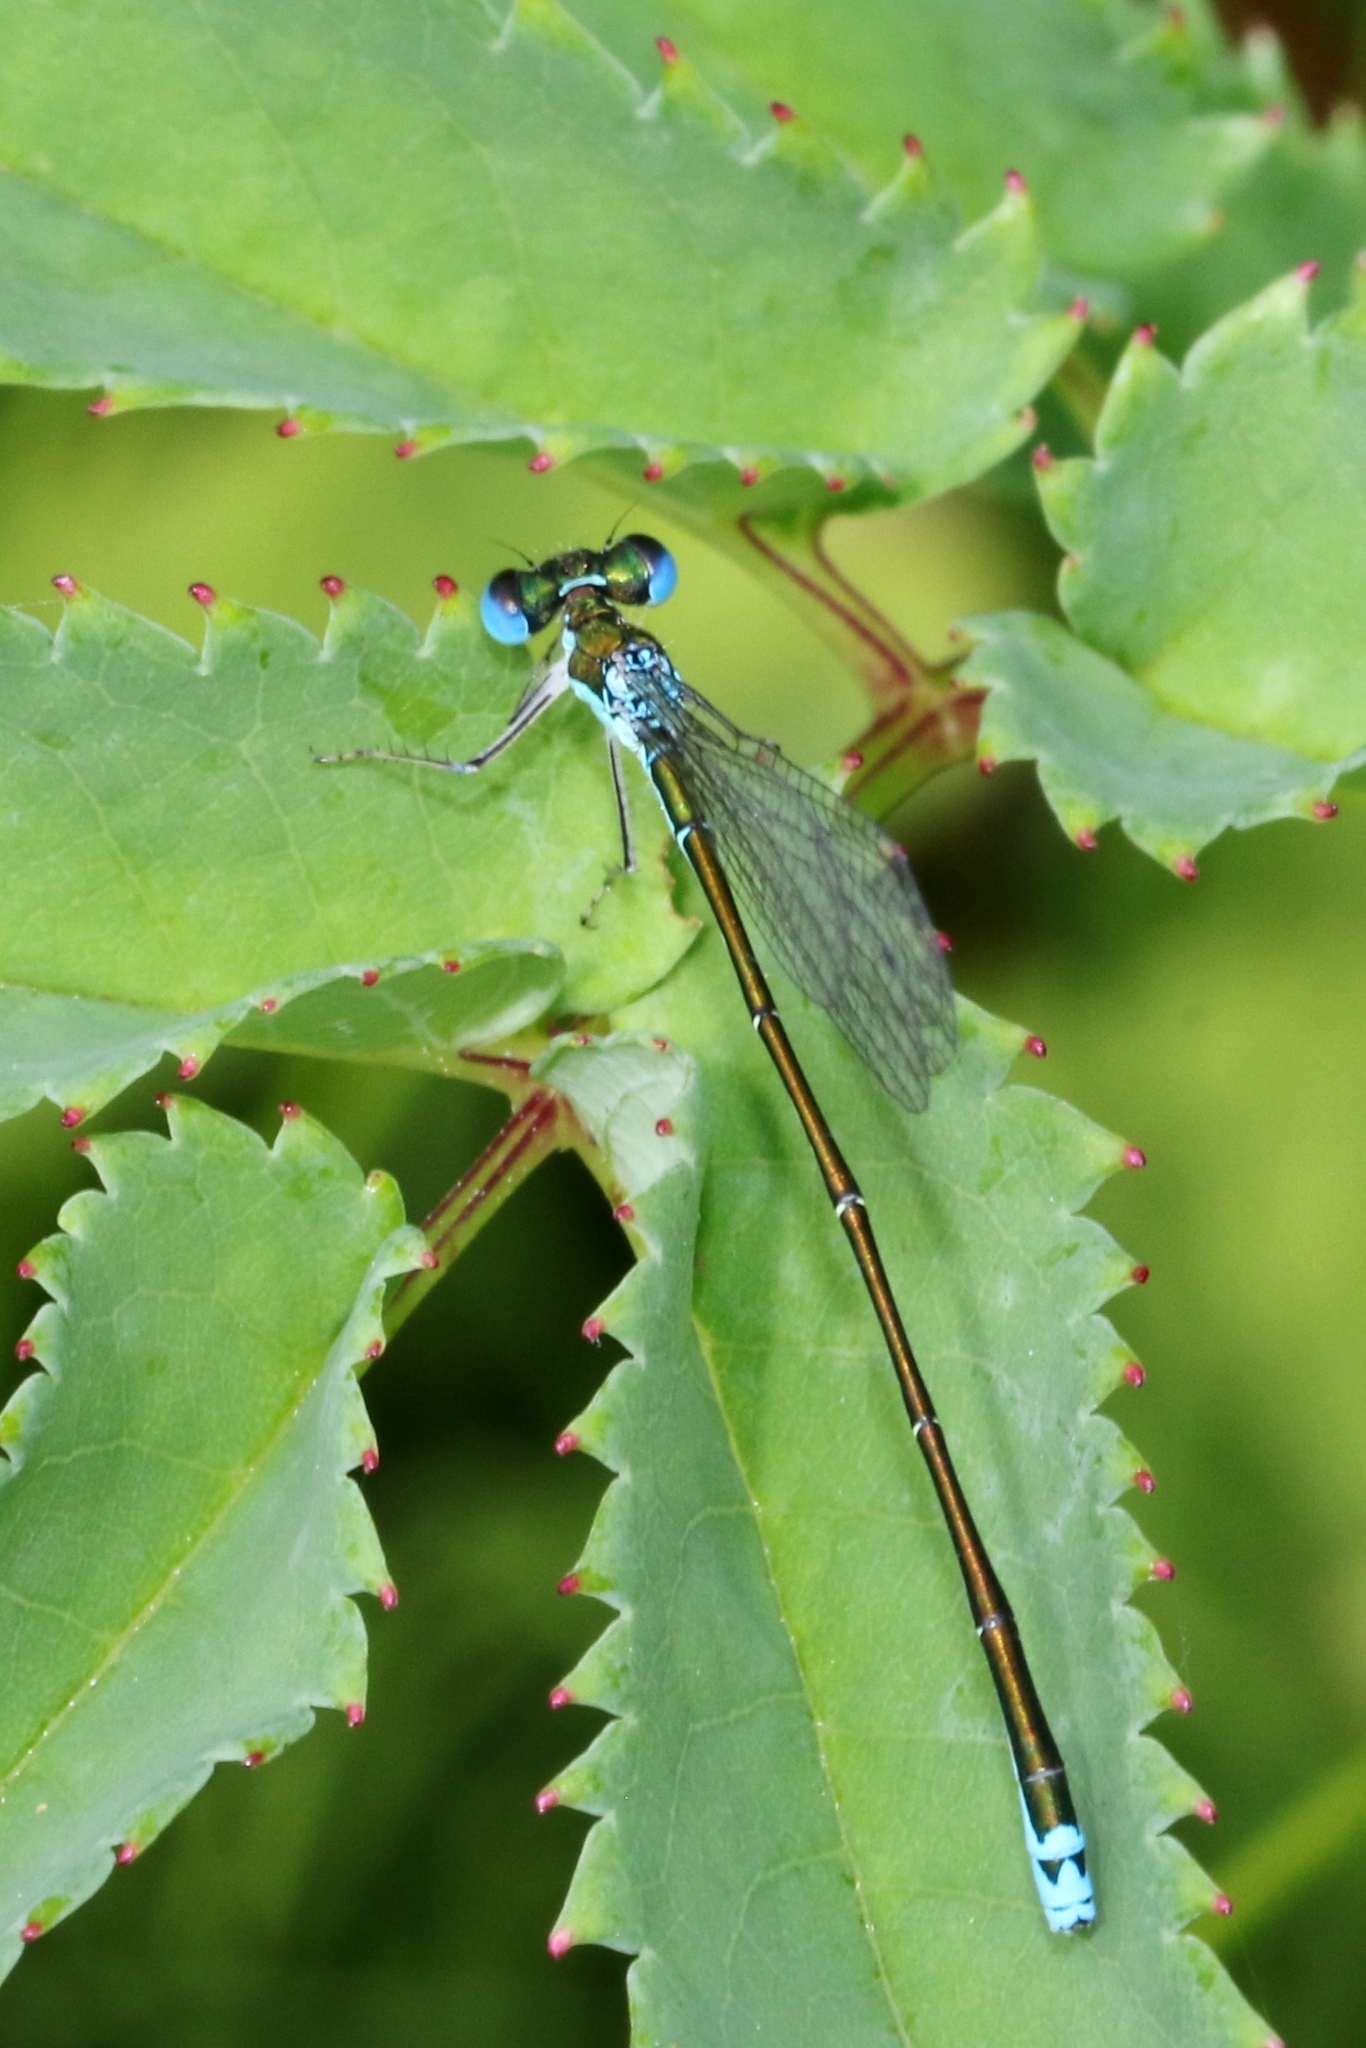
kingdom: Animalia
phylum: Arthropoda
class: Insecta
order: Odonata
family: Coenagrionidae
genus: Nehalennia
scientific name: Nehalennia irene
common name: Sedge sprite
